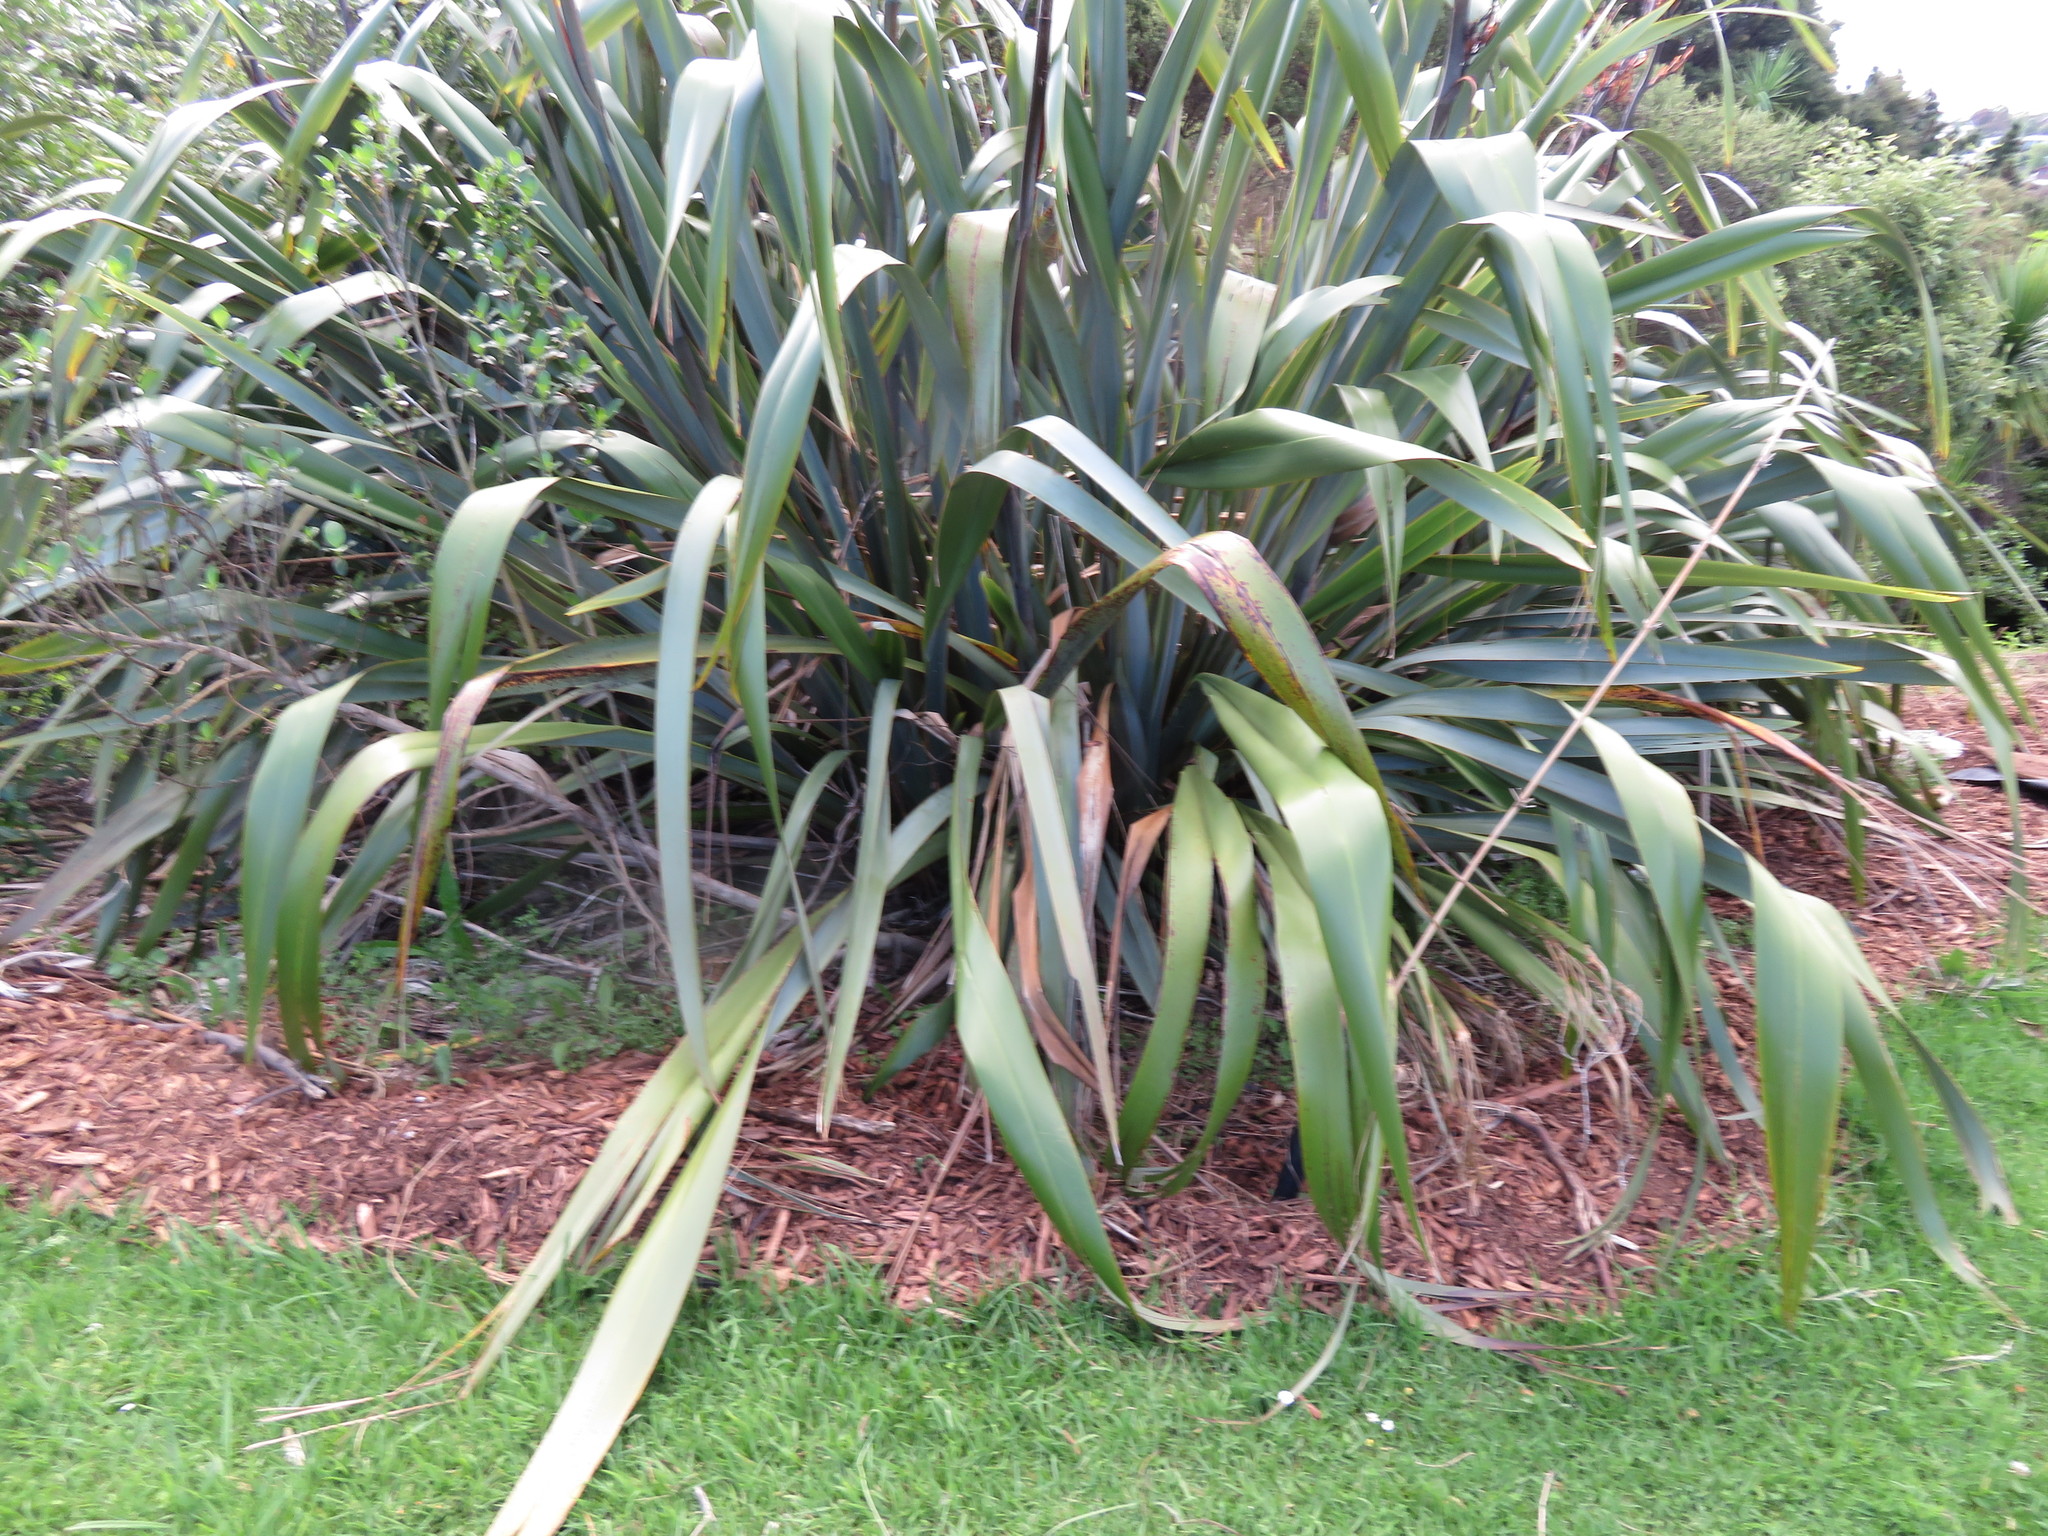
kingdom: Plantae
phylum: Tracheophyta
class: Magnoliopsida
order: Gentianales
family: Rubiaceae
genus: Coprosma
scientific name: Coprosma robusta
